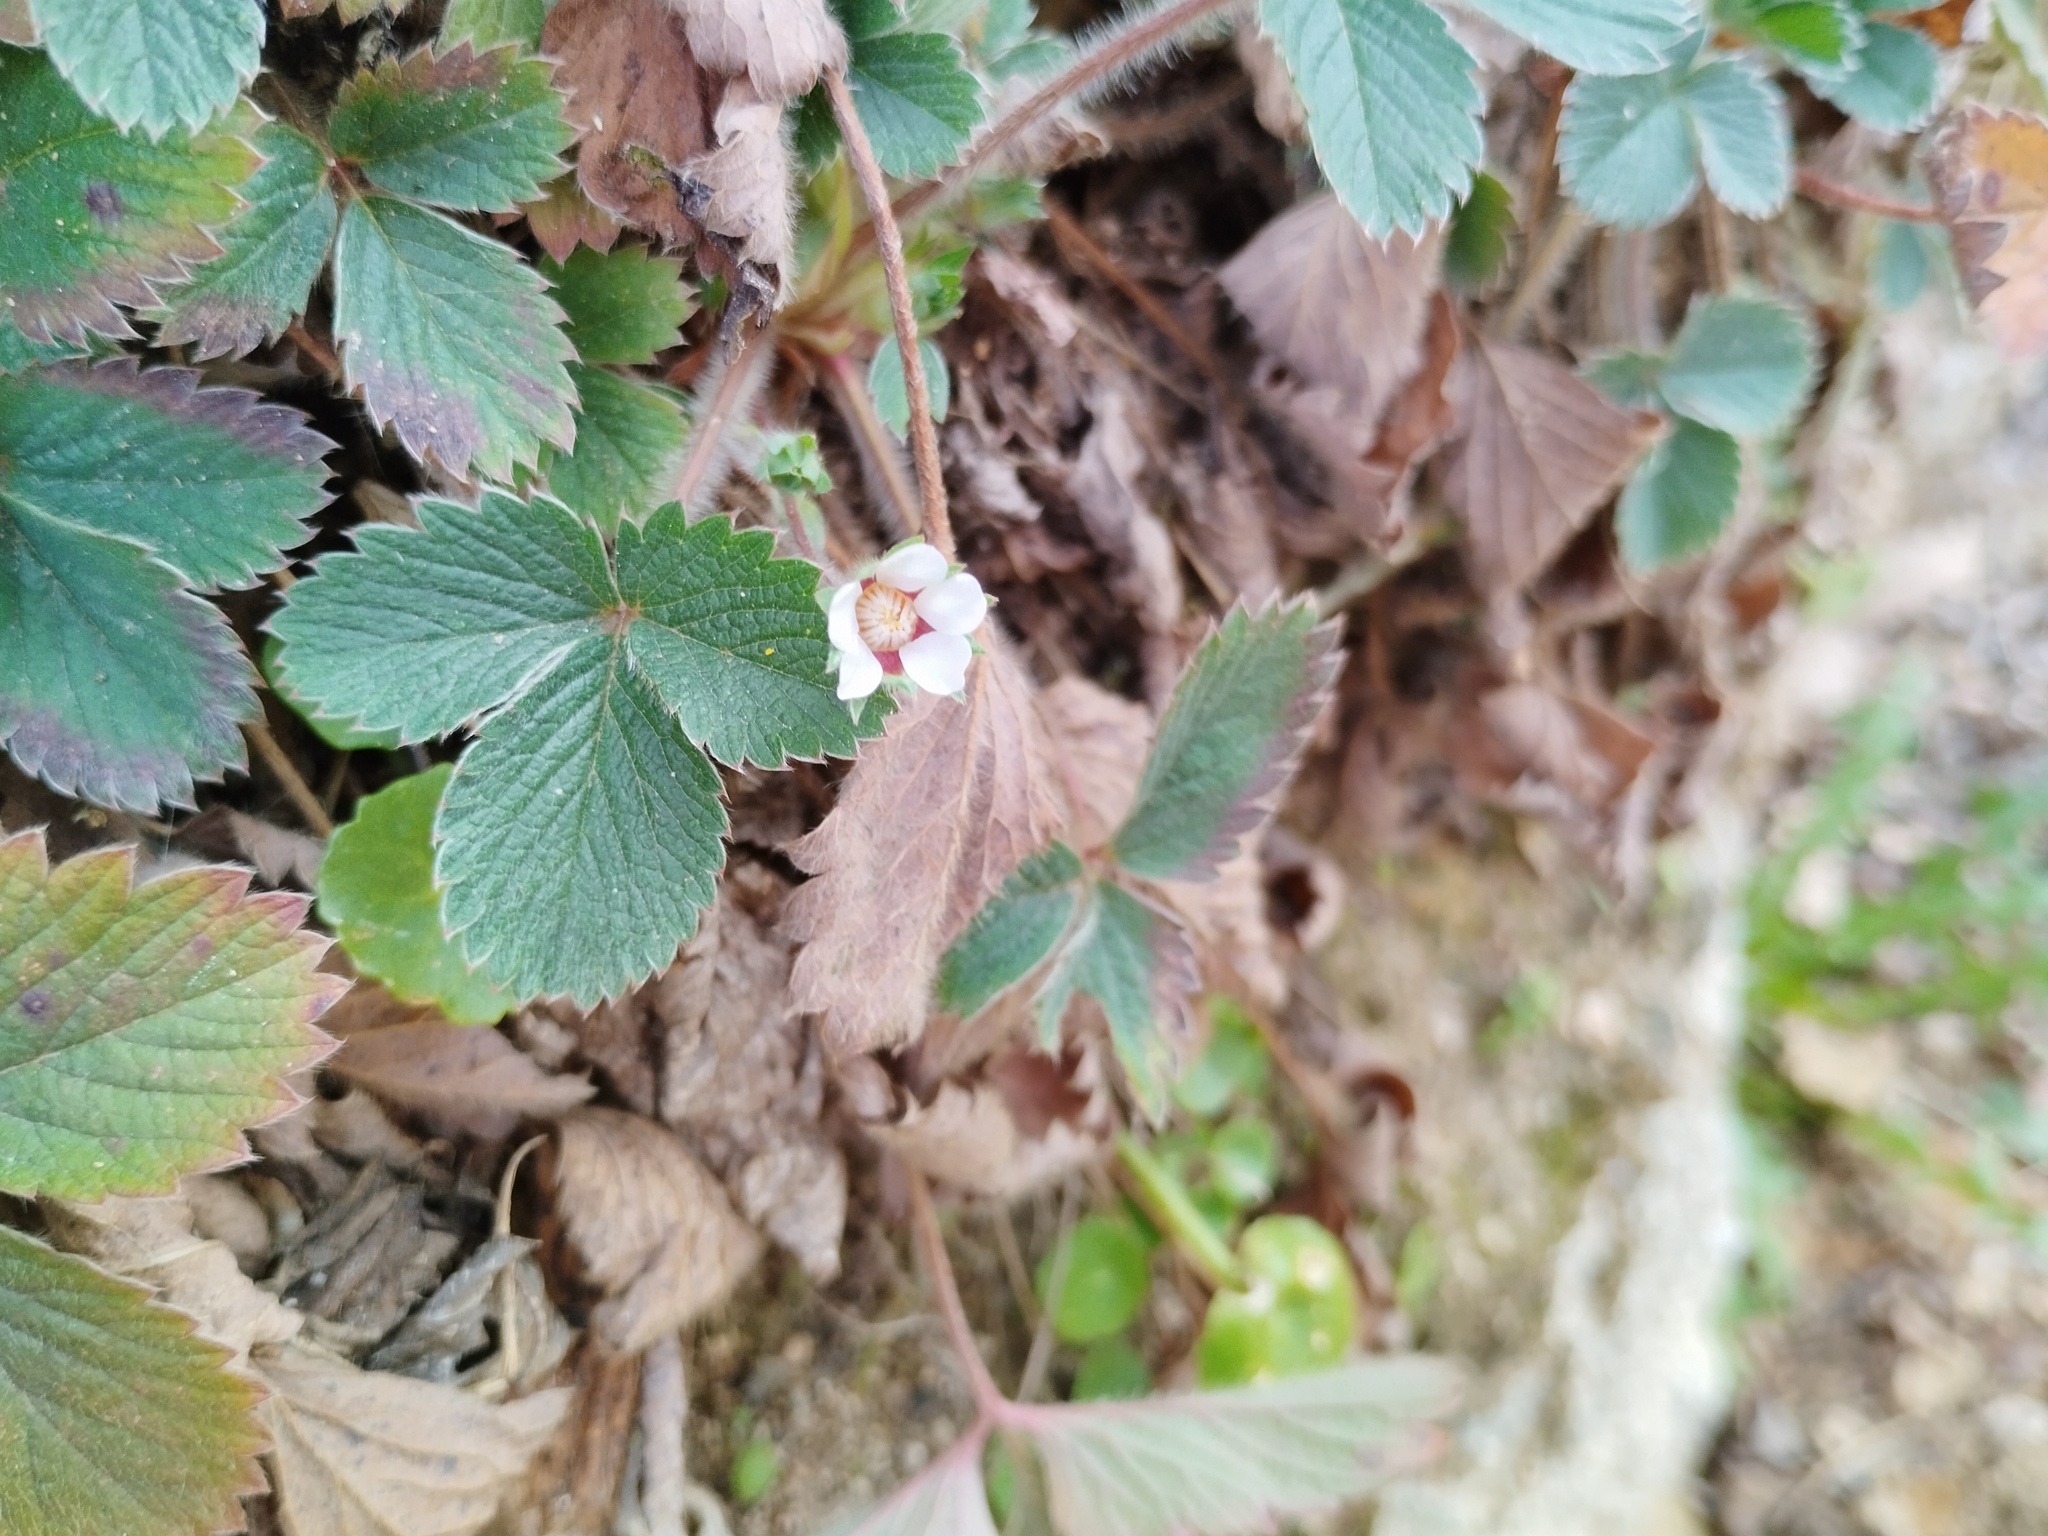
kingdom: Plantae
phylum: Tracheophyta
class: Magnoliopsida
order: Rosales
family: Rosaceae
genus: Potentilla
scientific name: Potentilla micrantha
